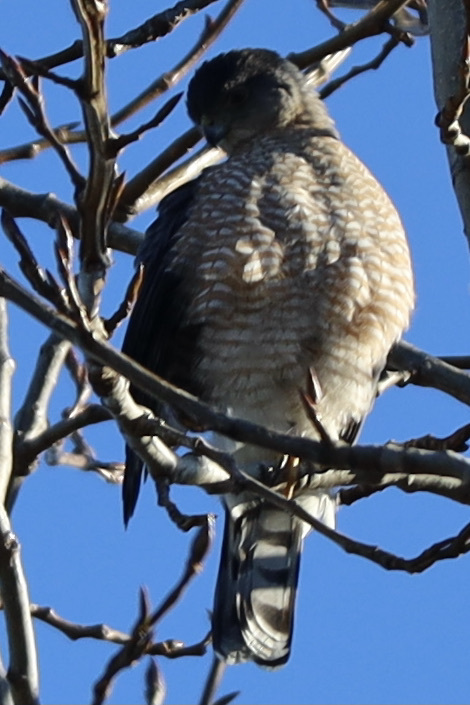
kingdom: Animalia
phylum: Chordata
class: Aves
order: Accipitriformes
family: Accipitridae
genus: Accipiter
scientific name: Accipiter cooperii
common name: Cooper's hawk
